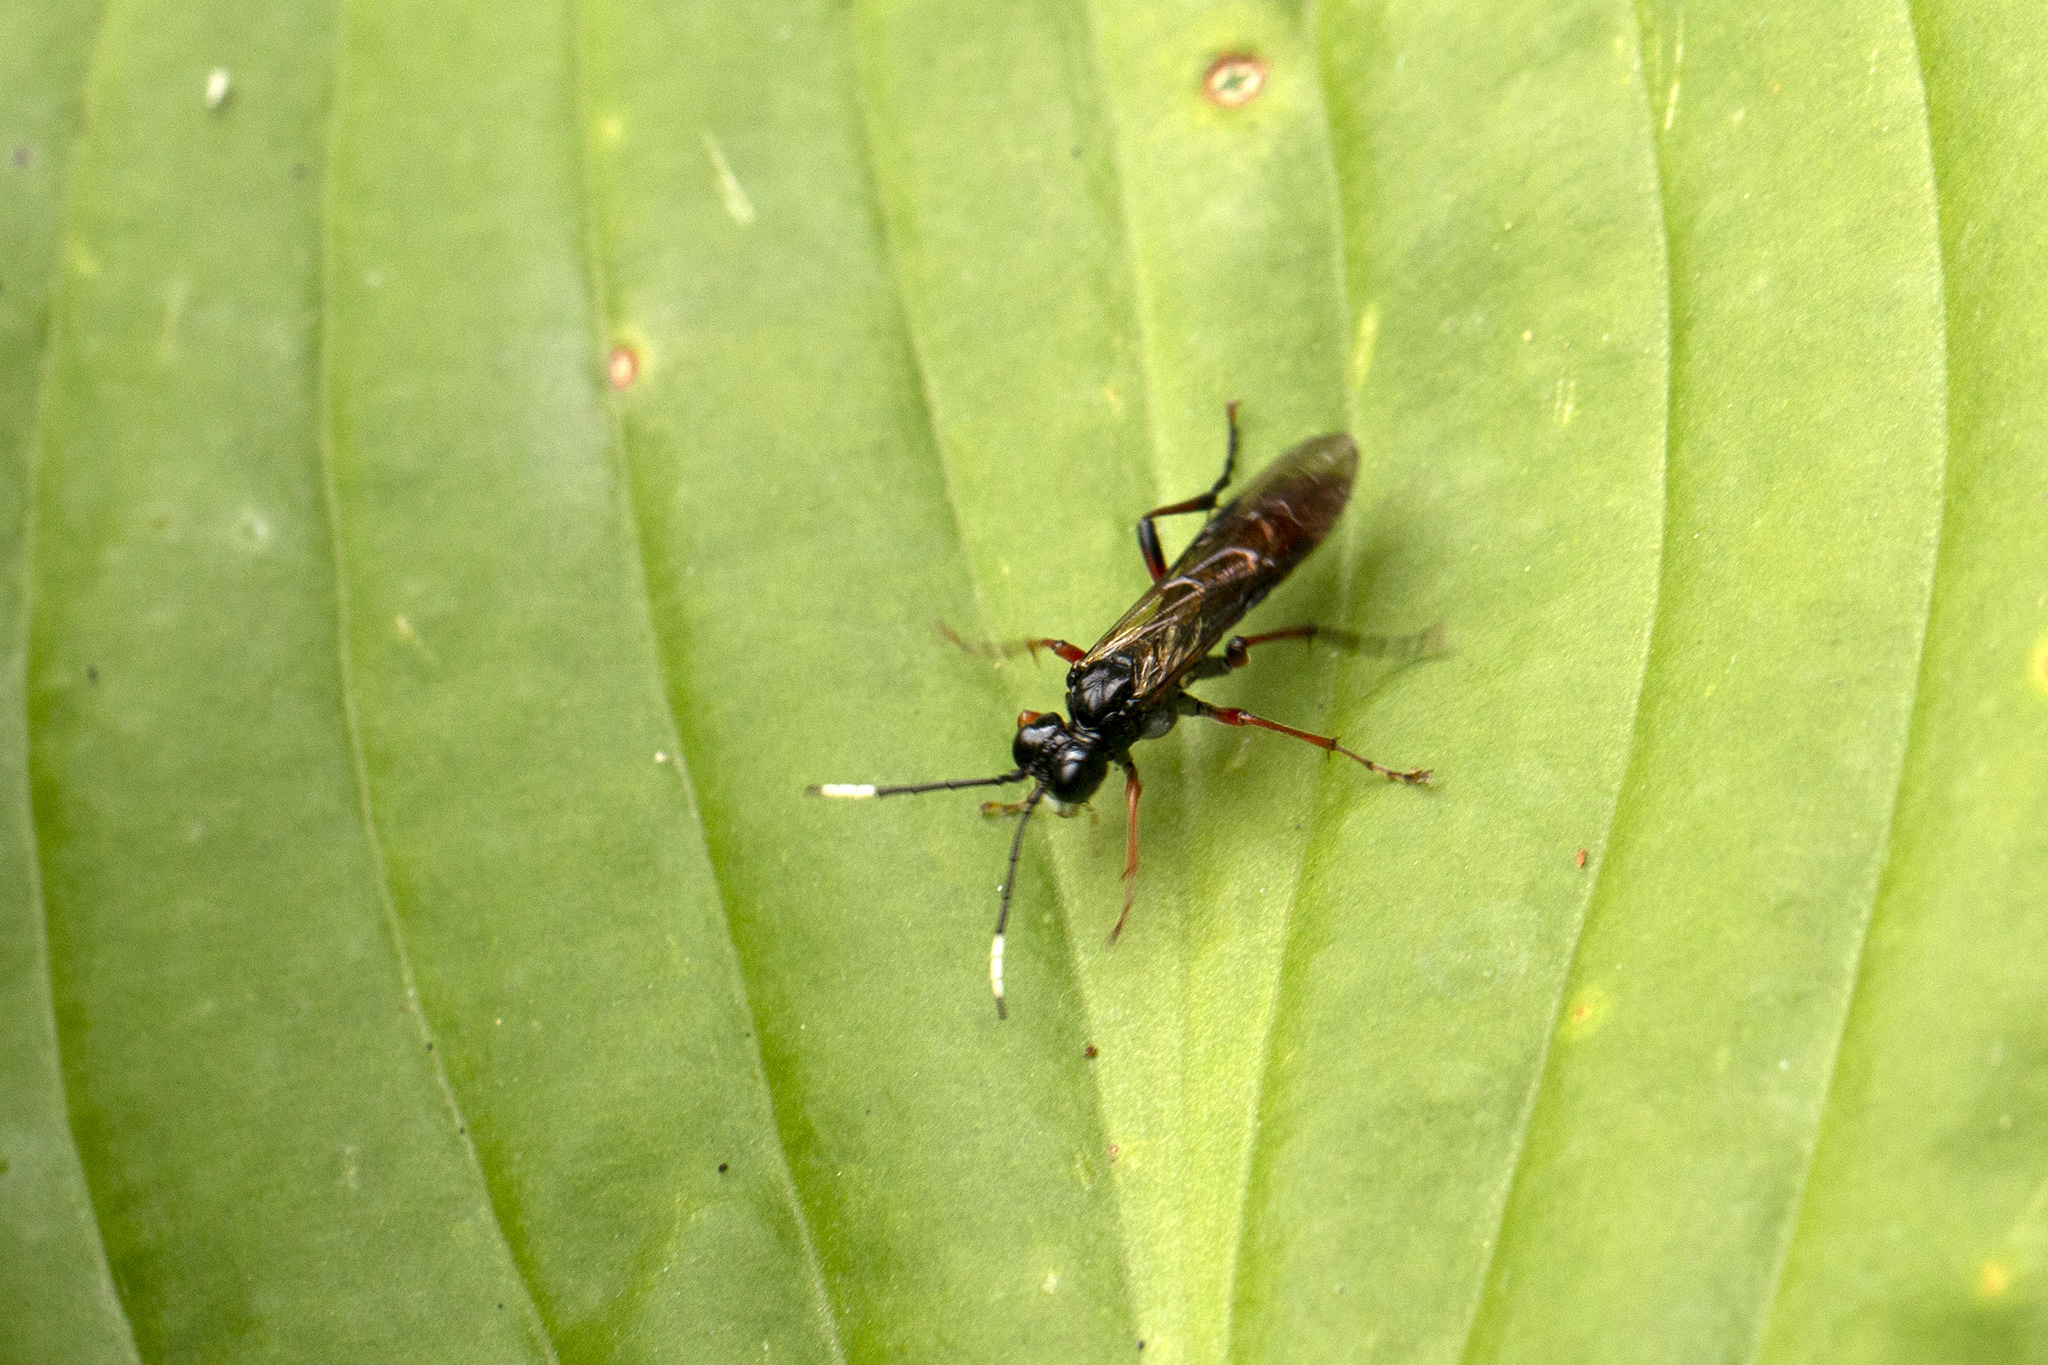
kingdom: Animalia
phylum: Arthropoda
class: Insecta
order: Hymenoptera
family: Tenthredinidae
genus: Tenthredo
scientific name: Tenthredo colon
